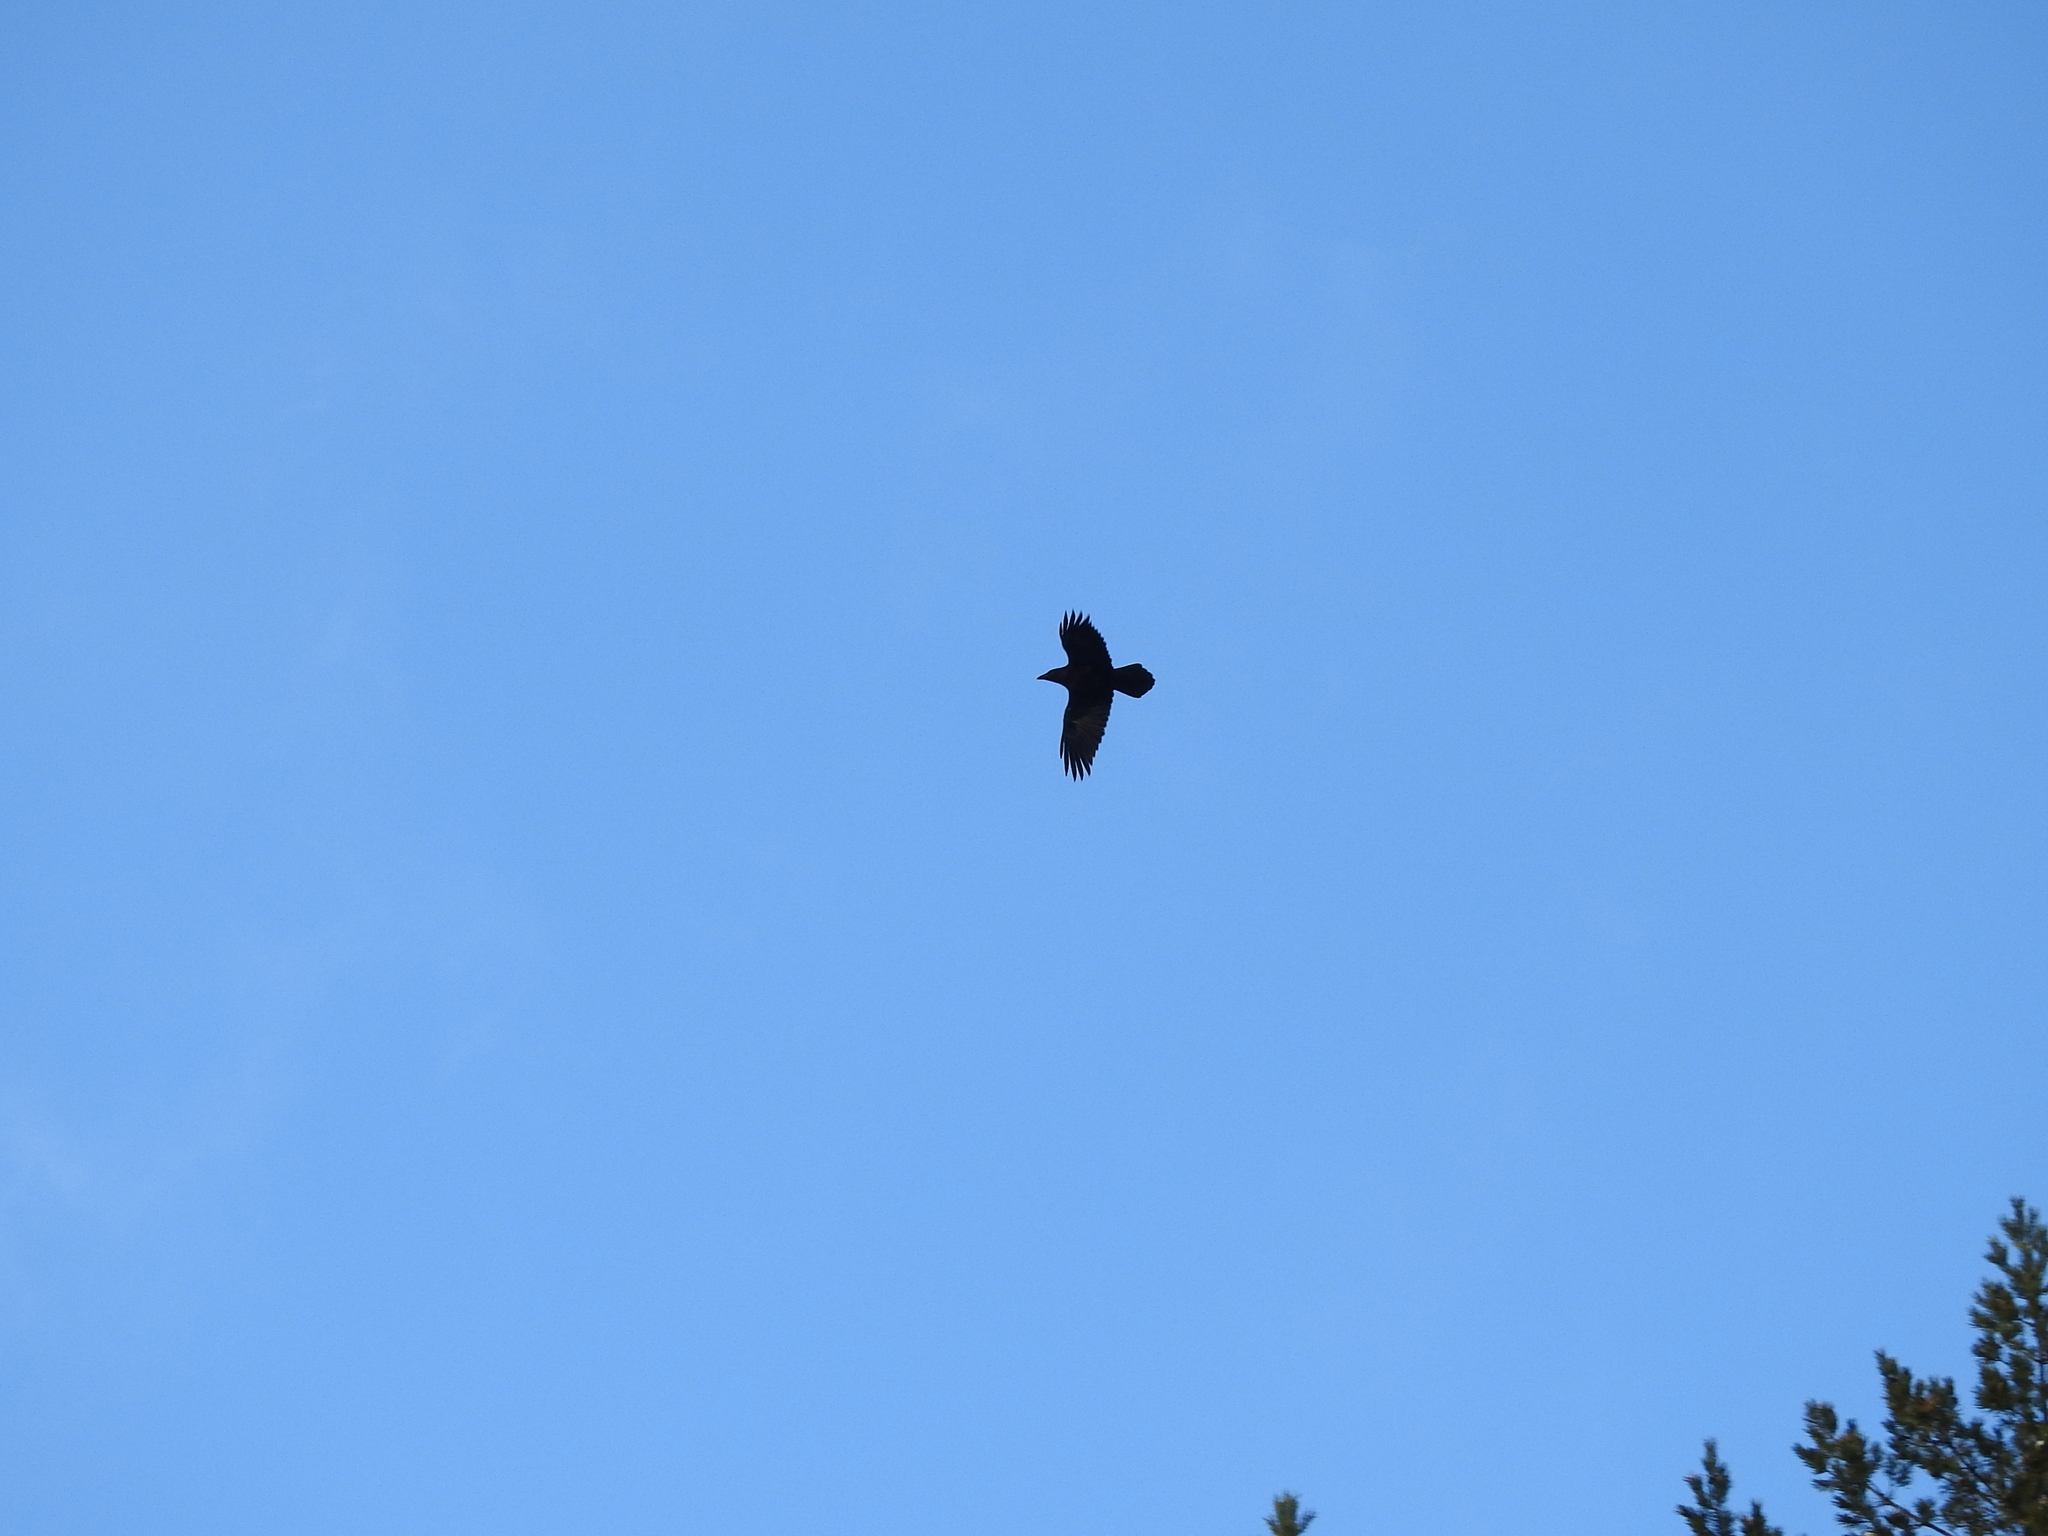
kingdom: Animalia
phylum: Chordata
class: Aves
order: Passeriformes
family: Corvidae
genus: Corvus
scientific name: Corvus corax
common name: Common raven
